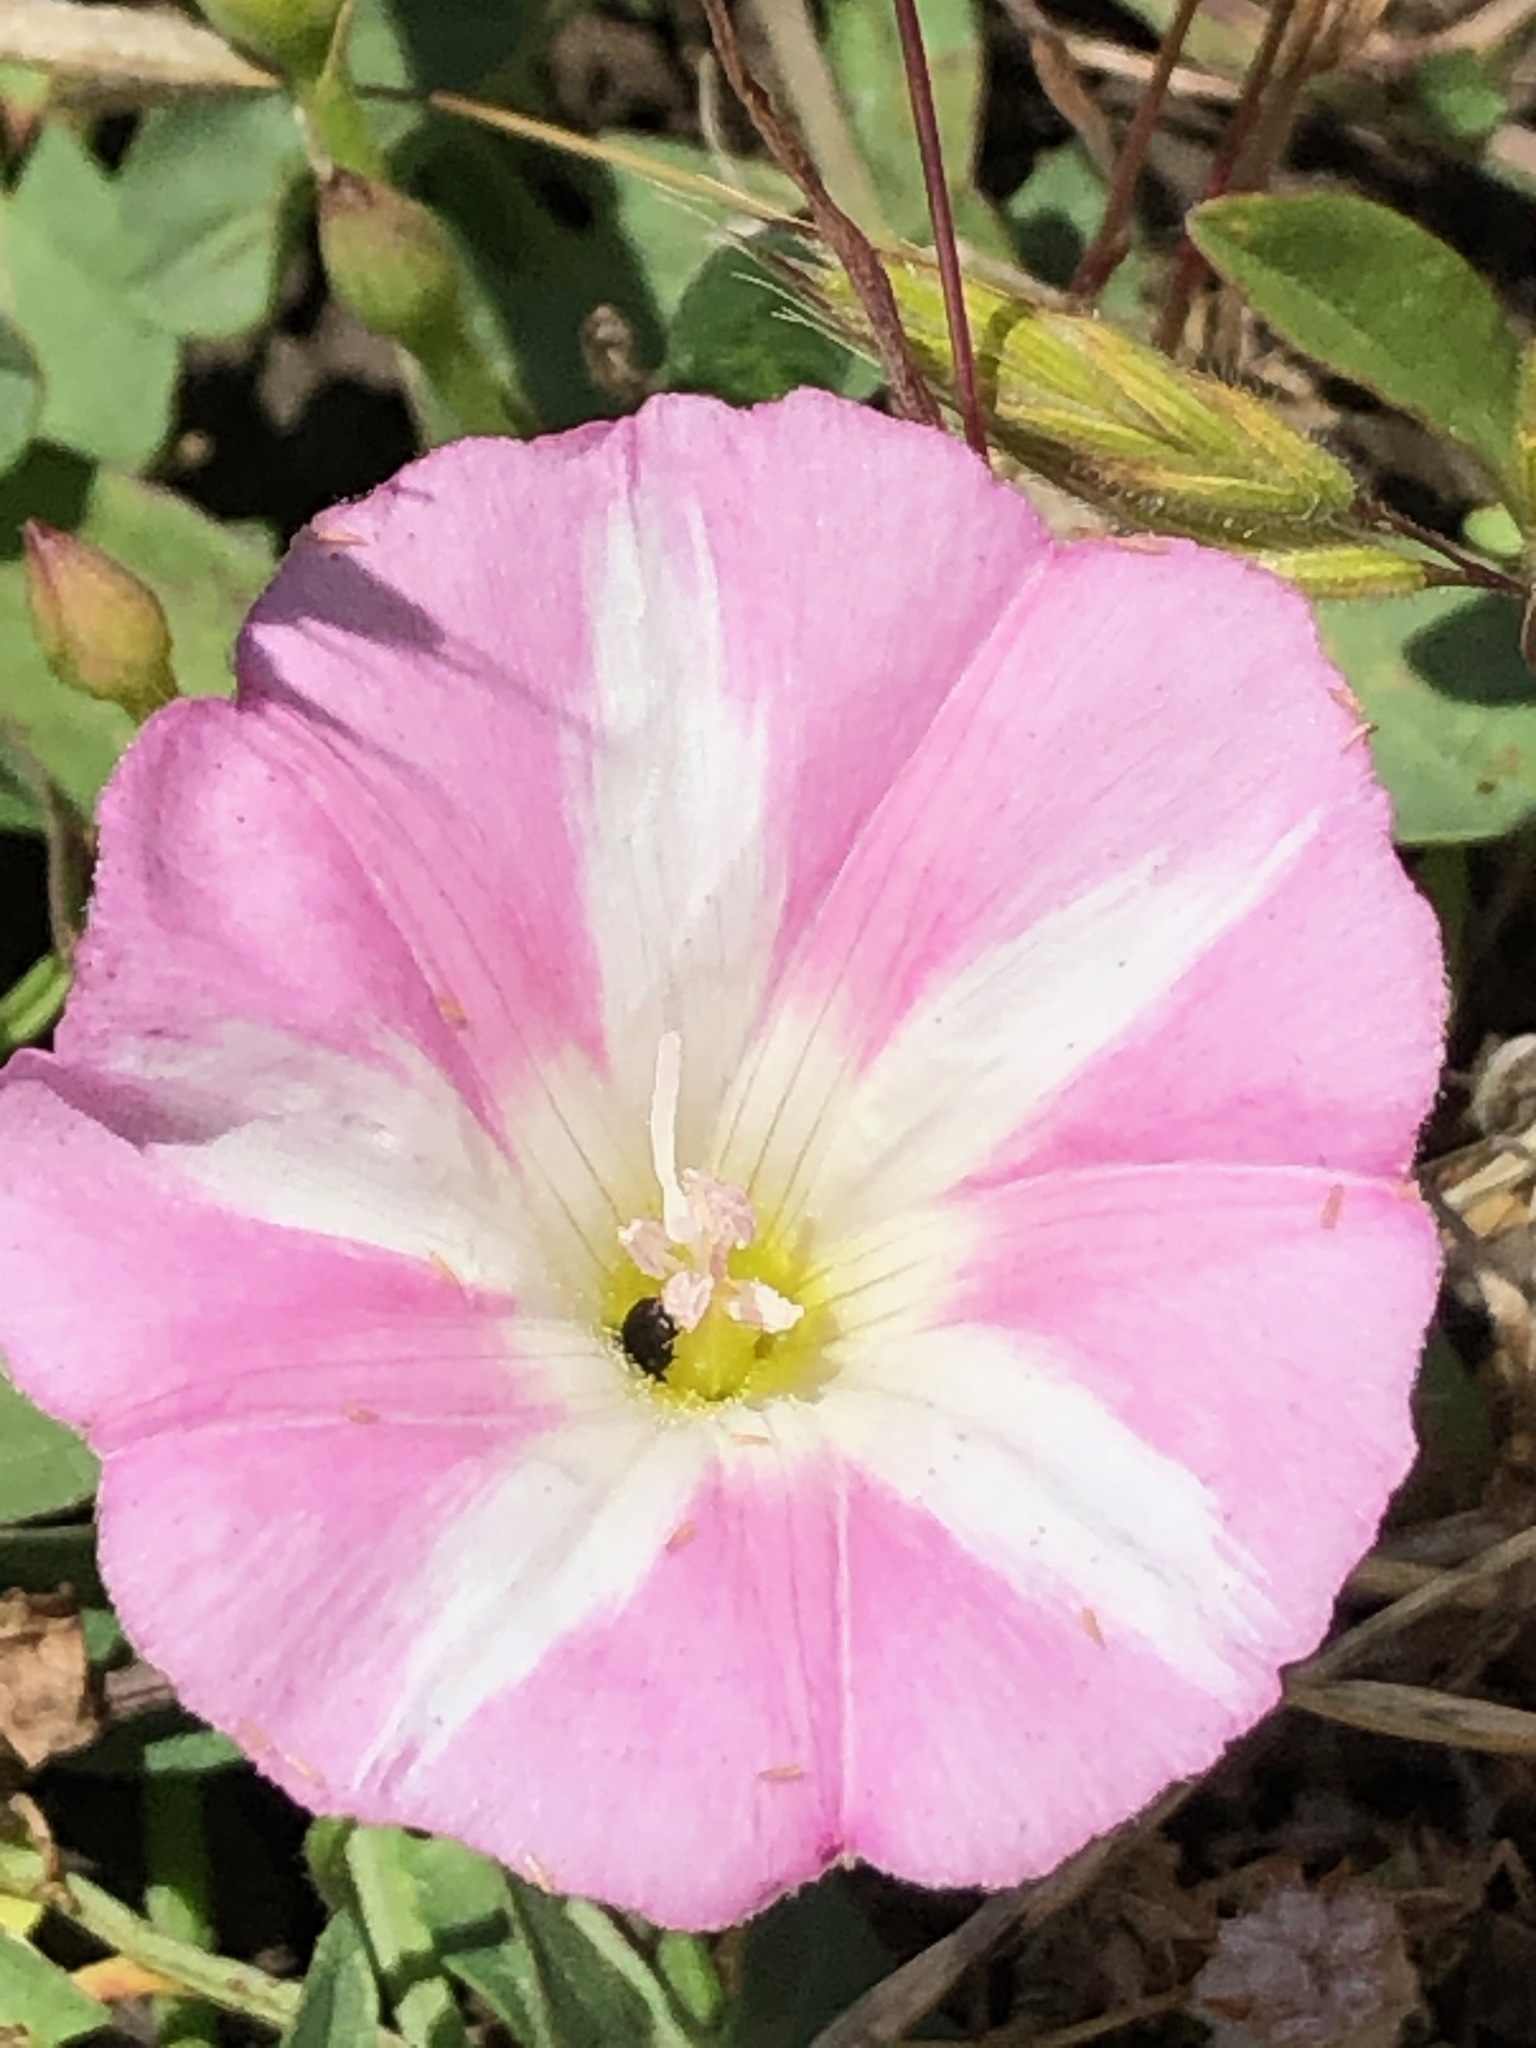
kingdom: Plantae
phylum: Tracheophyta
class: Magnoliopsida
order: Solanales
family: Convolvulaceae
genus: Convolvulus
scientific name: Convolvulus arvensis
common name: Field bindweed
